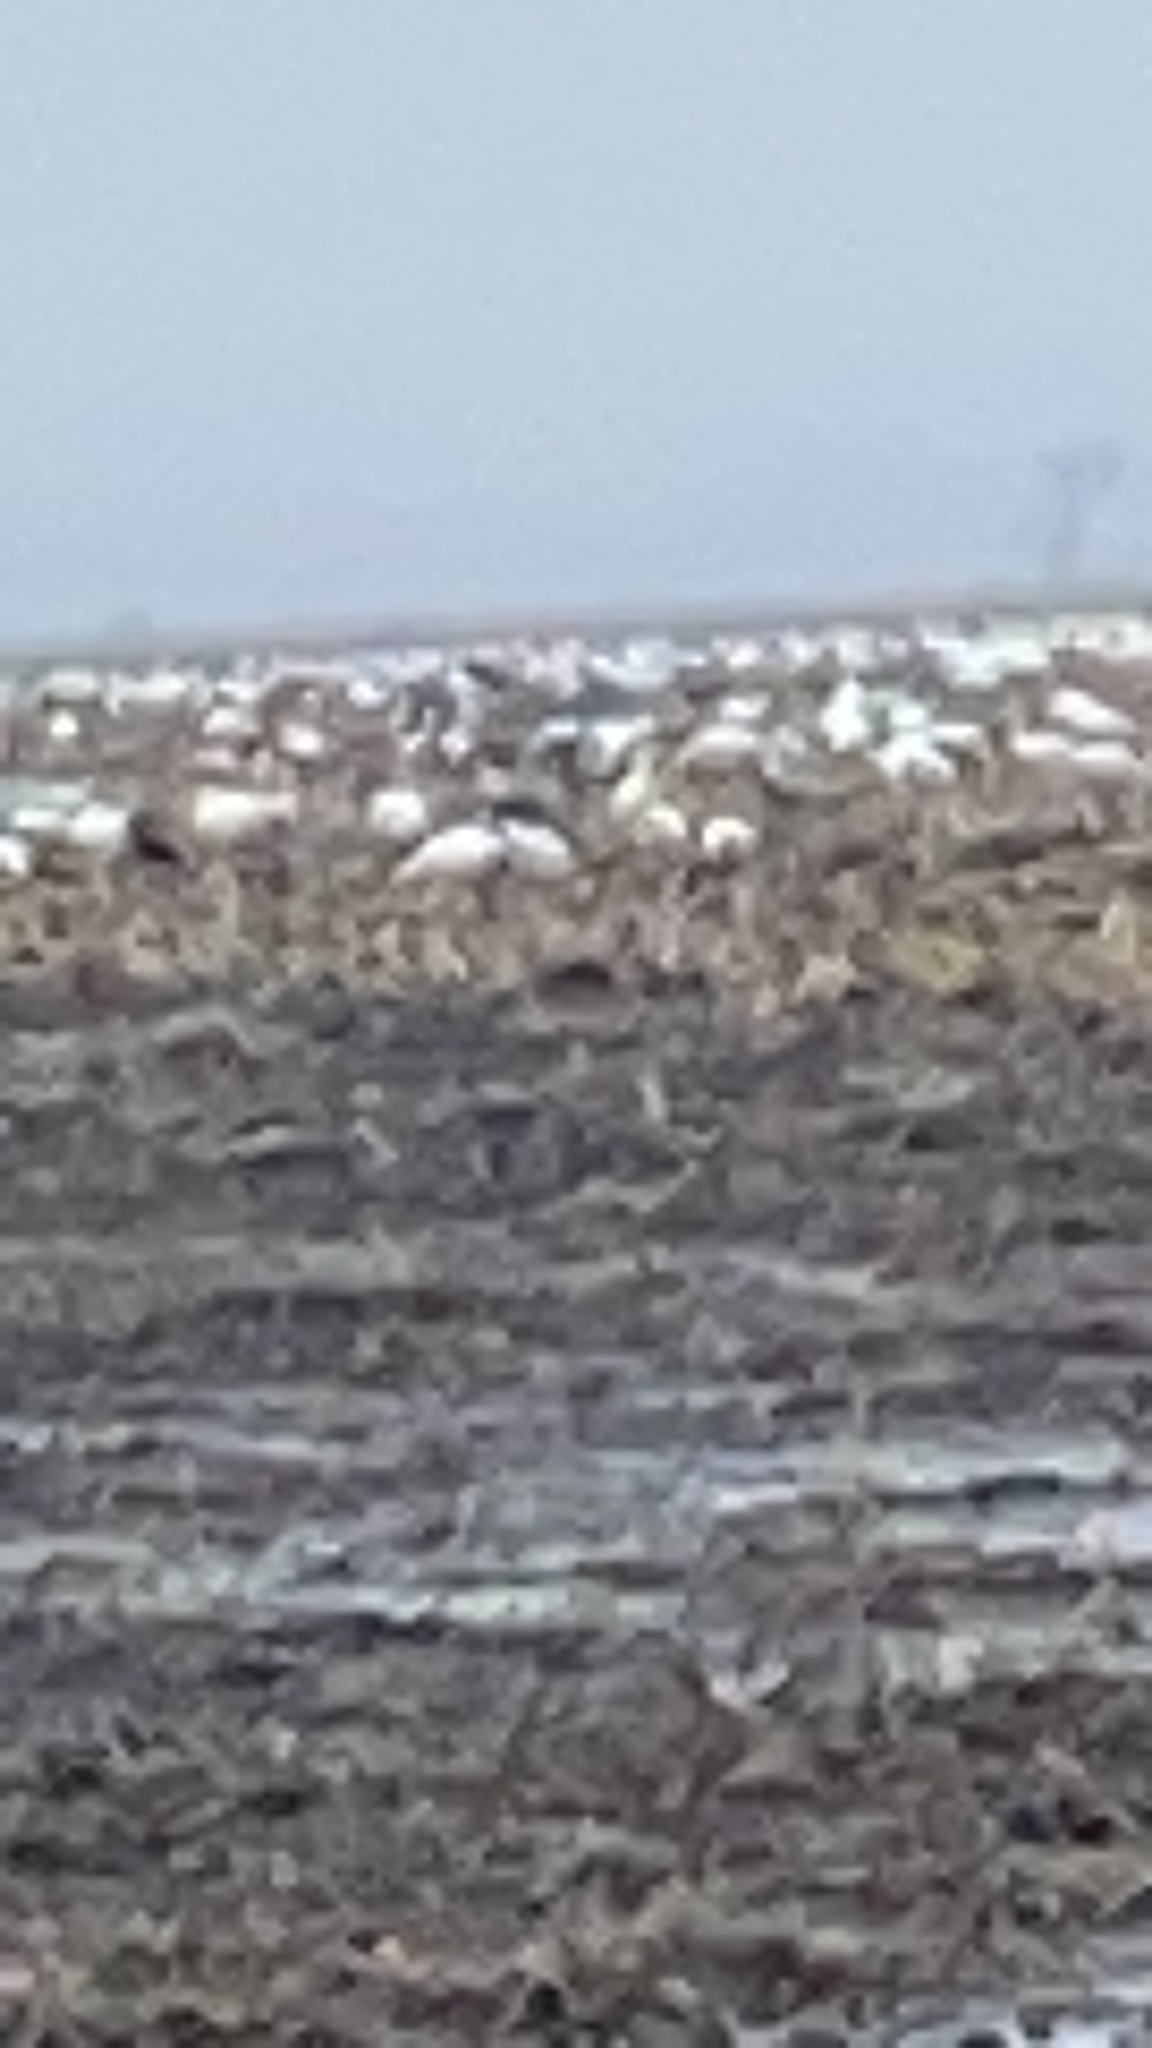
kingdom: Animalia
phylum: Chordata
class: Aves
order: Anseriformes
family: Anatidae
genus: Anser
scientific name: Anser caerulescens
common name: Snow goose
